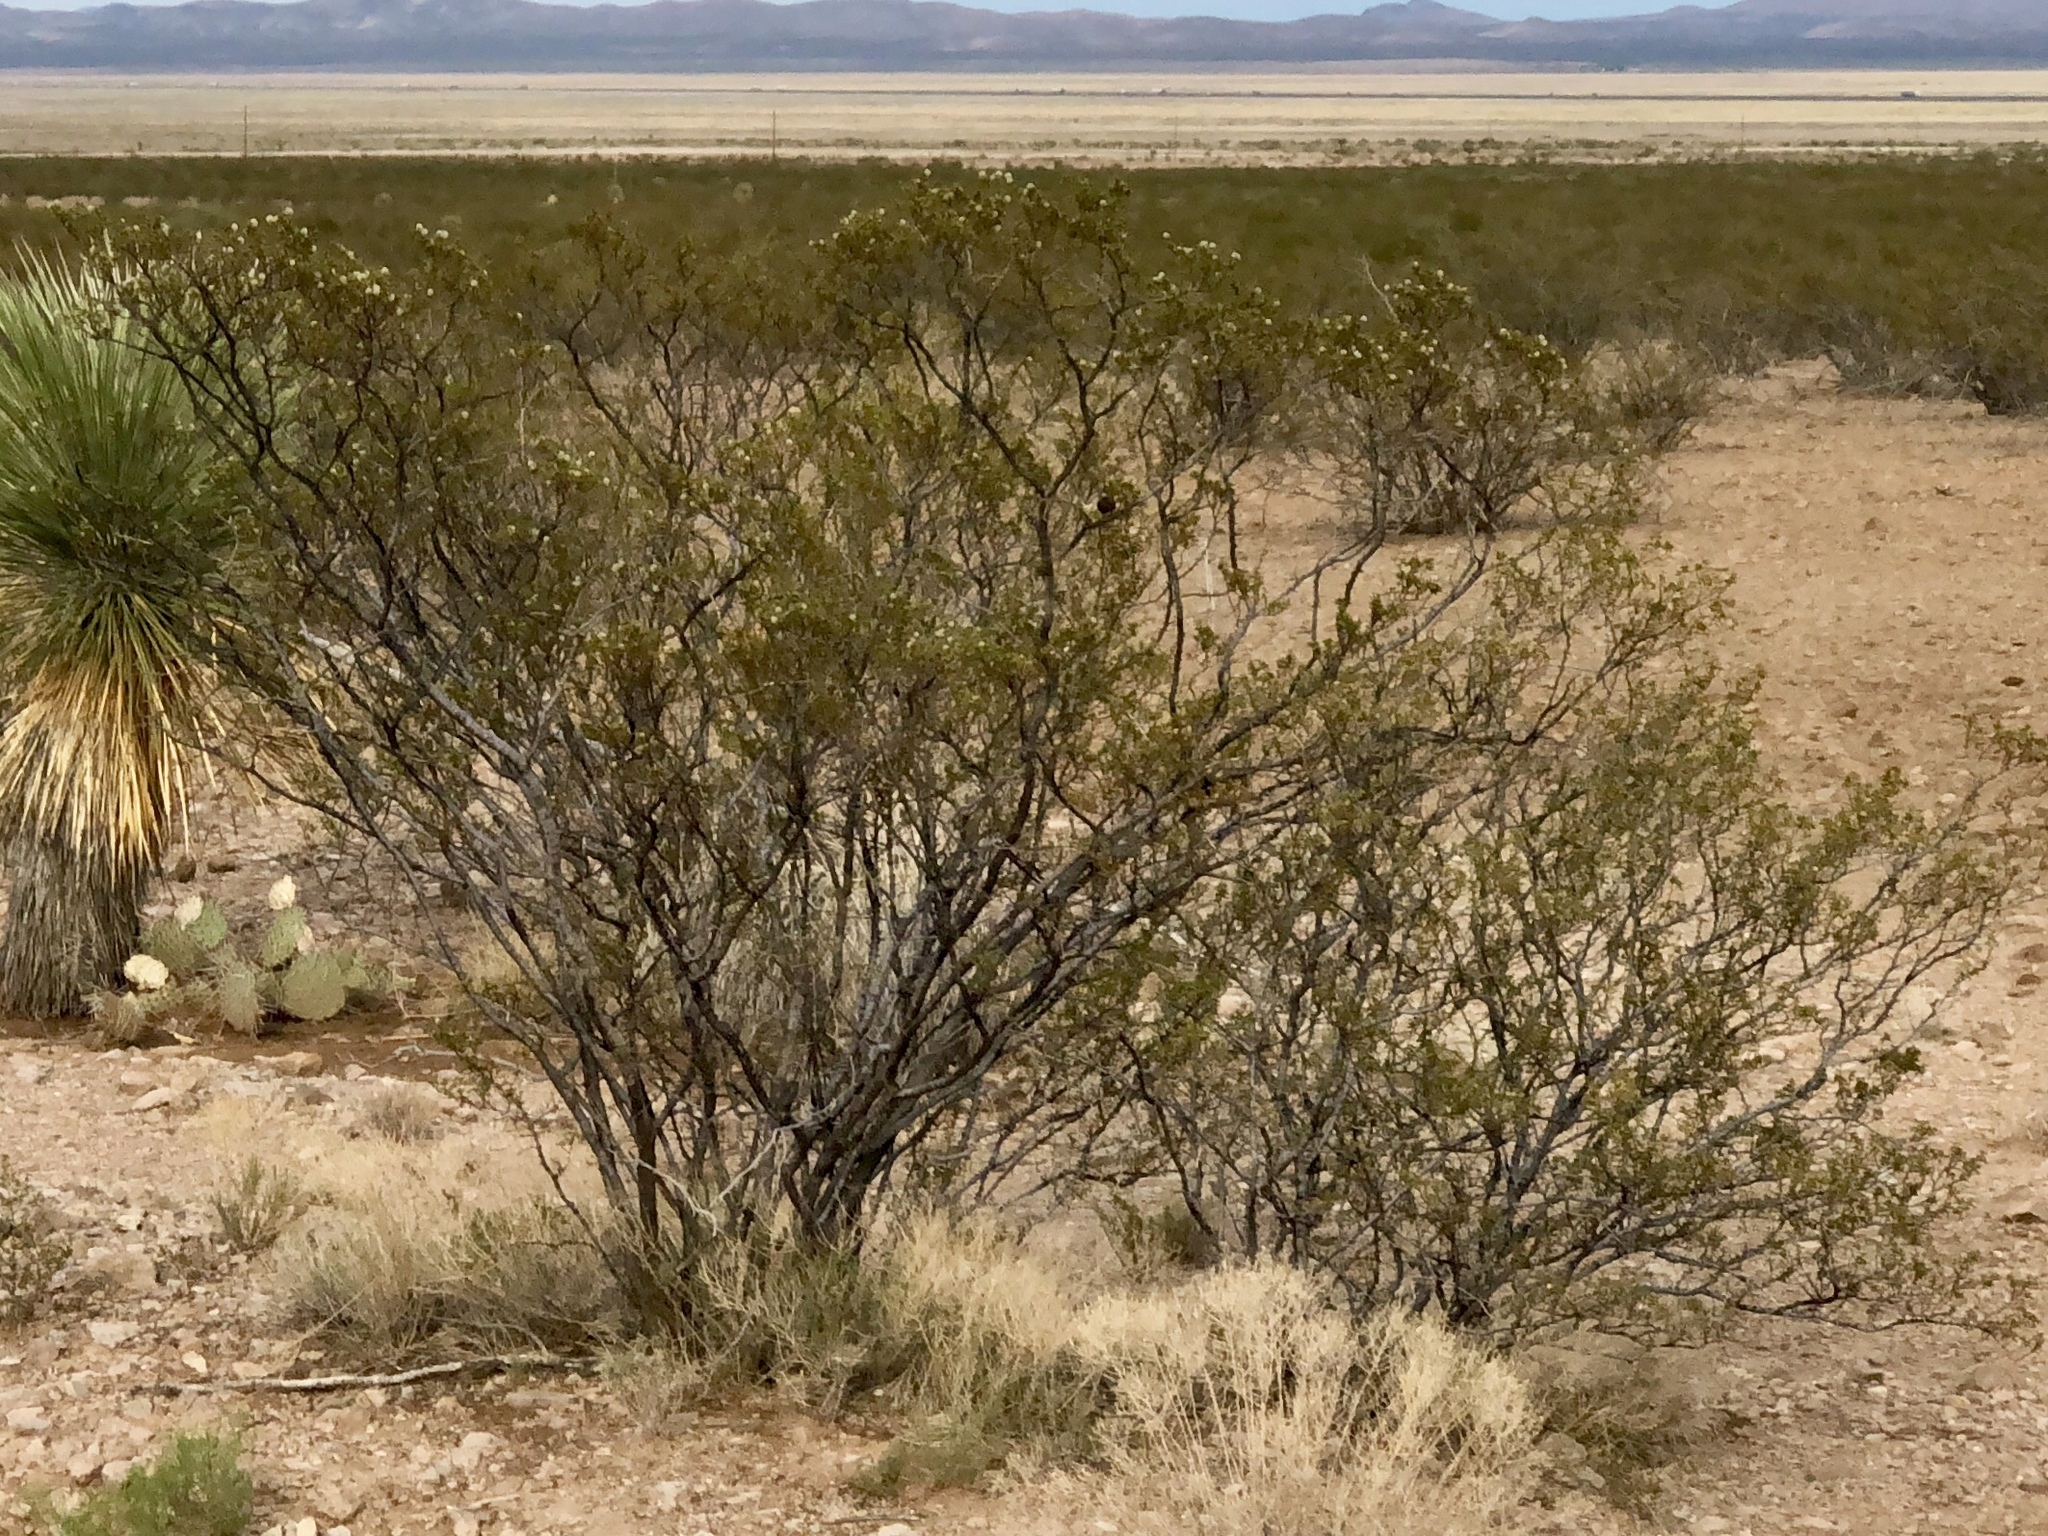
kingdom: Plantae
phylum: Tracheophyta
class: Magnoliopsida
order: Zygophyllales
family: Zygophyllaceae
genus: Larrea
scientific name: Larrea tridentata
